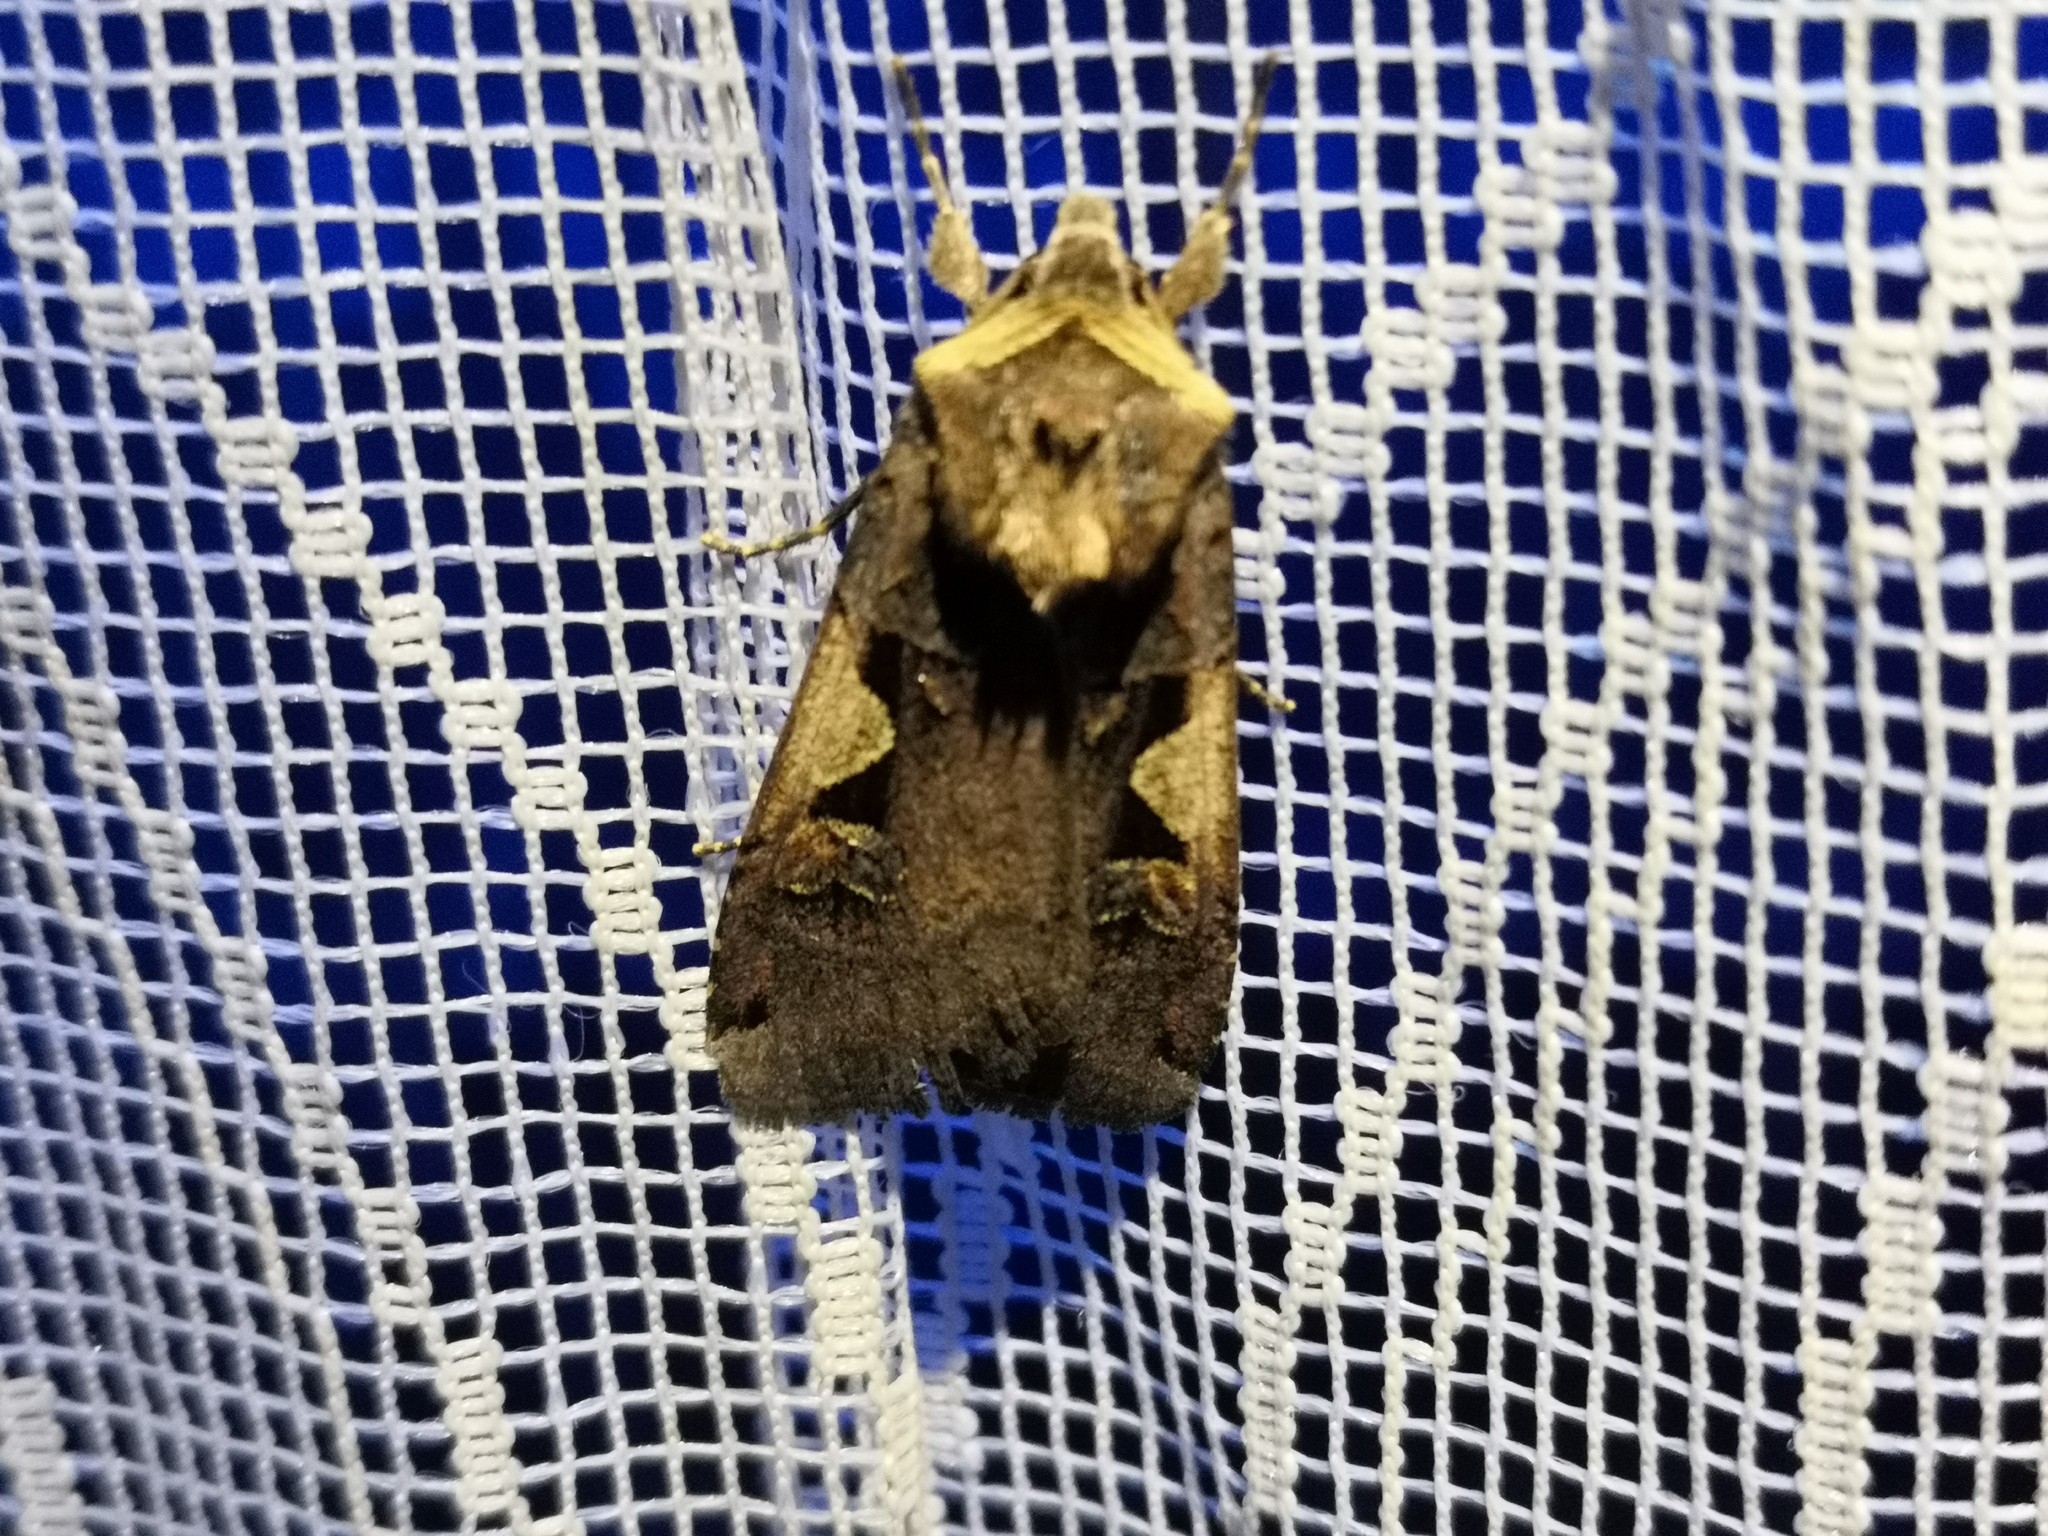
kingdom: Animalia
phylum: Arthropoda
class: Insecta
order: Lepidoptera
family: Noctuidae
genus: Xestia
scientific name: Xestia c-nigrum
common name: Setaceous hebrew character
